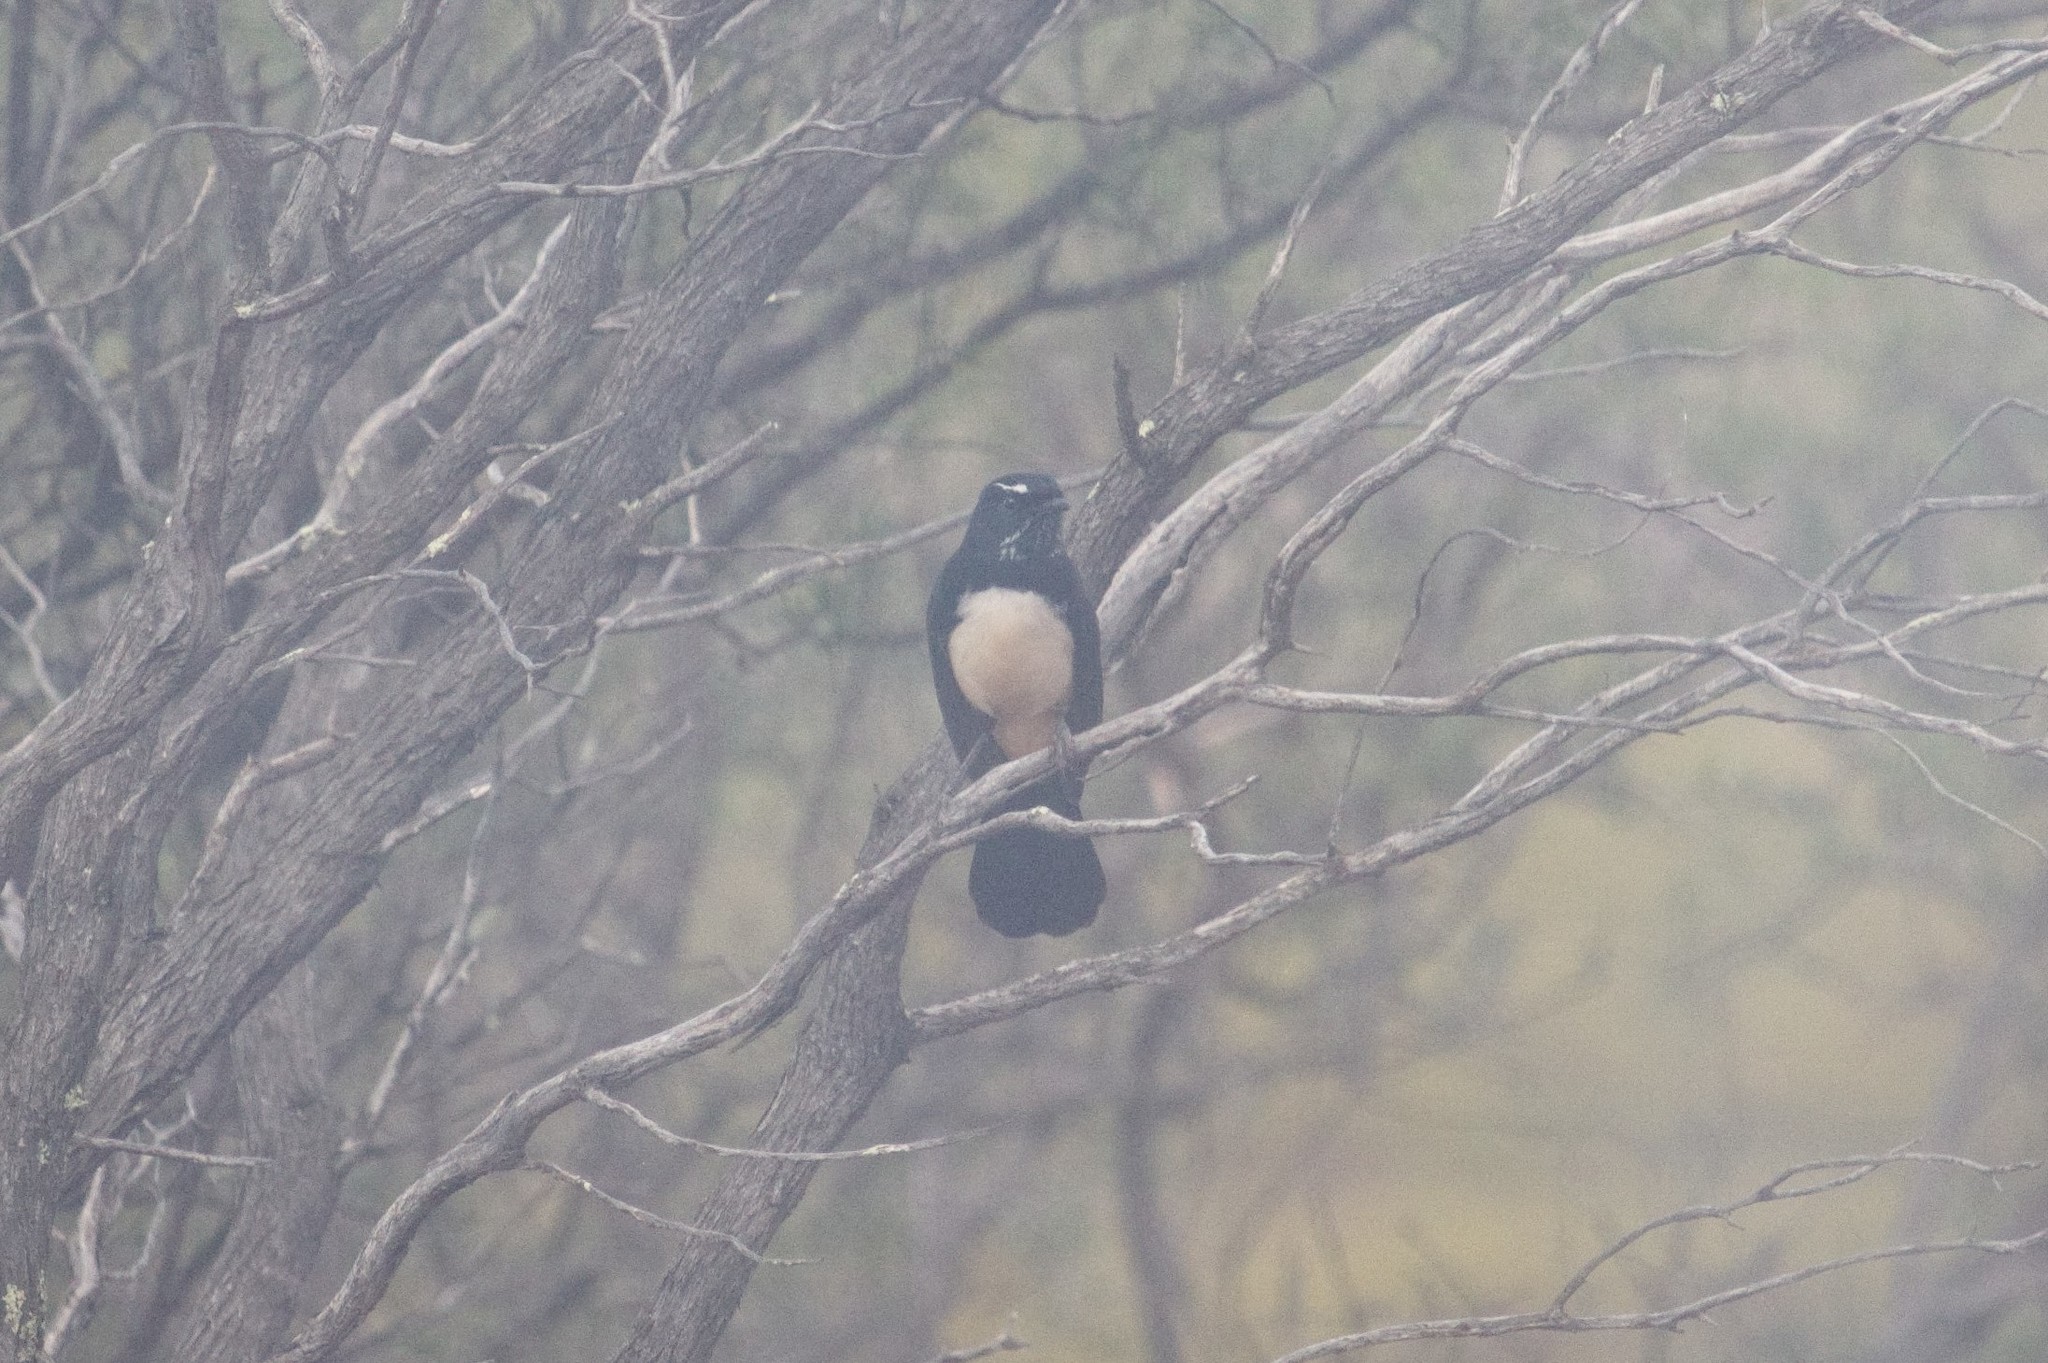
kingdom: Animalia
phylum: Chordata
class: Aves
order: Passeriformes
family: Rhipiduridae
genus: Rhipidura
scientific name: Rhipidura leucophrys
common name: Willie wagtail
